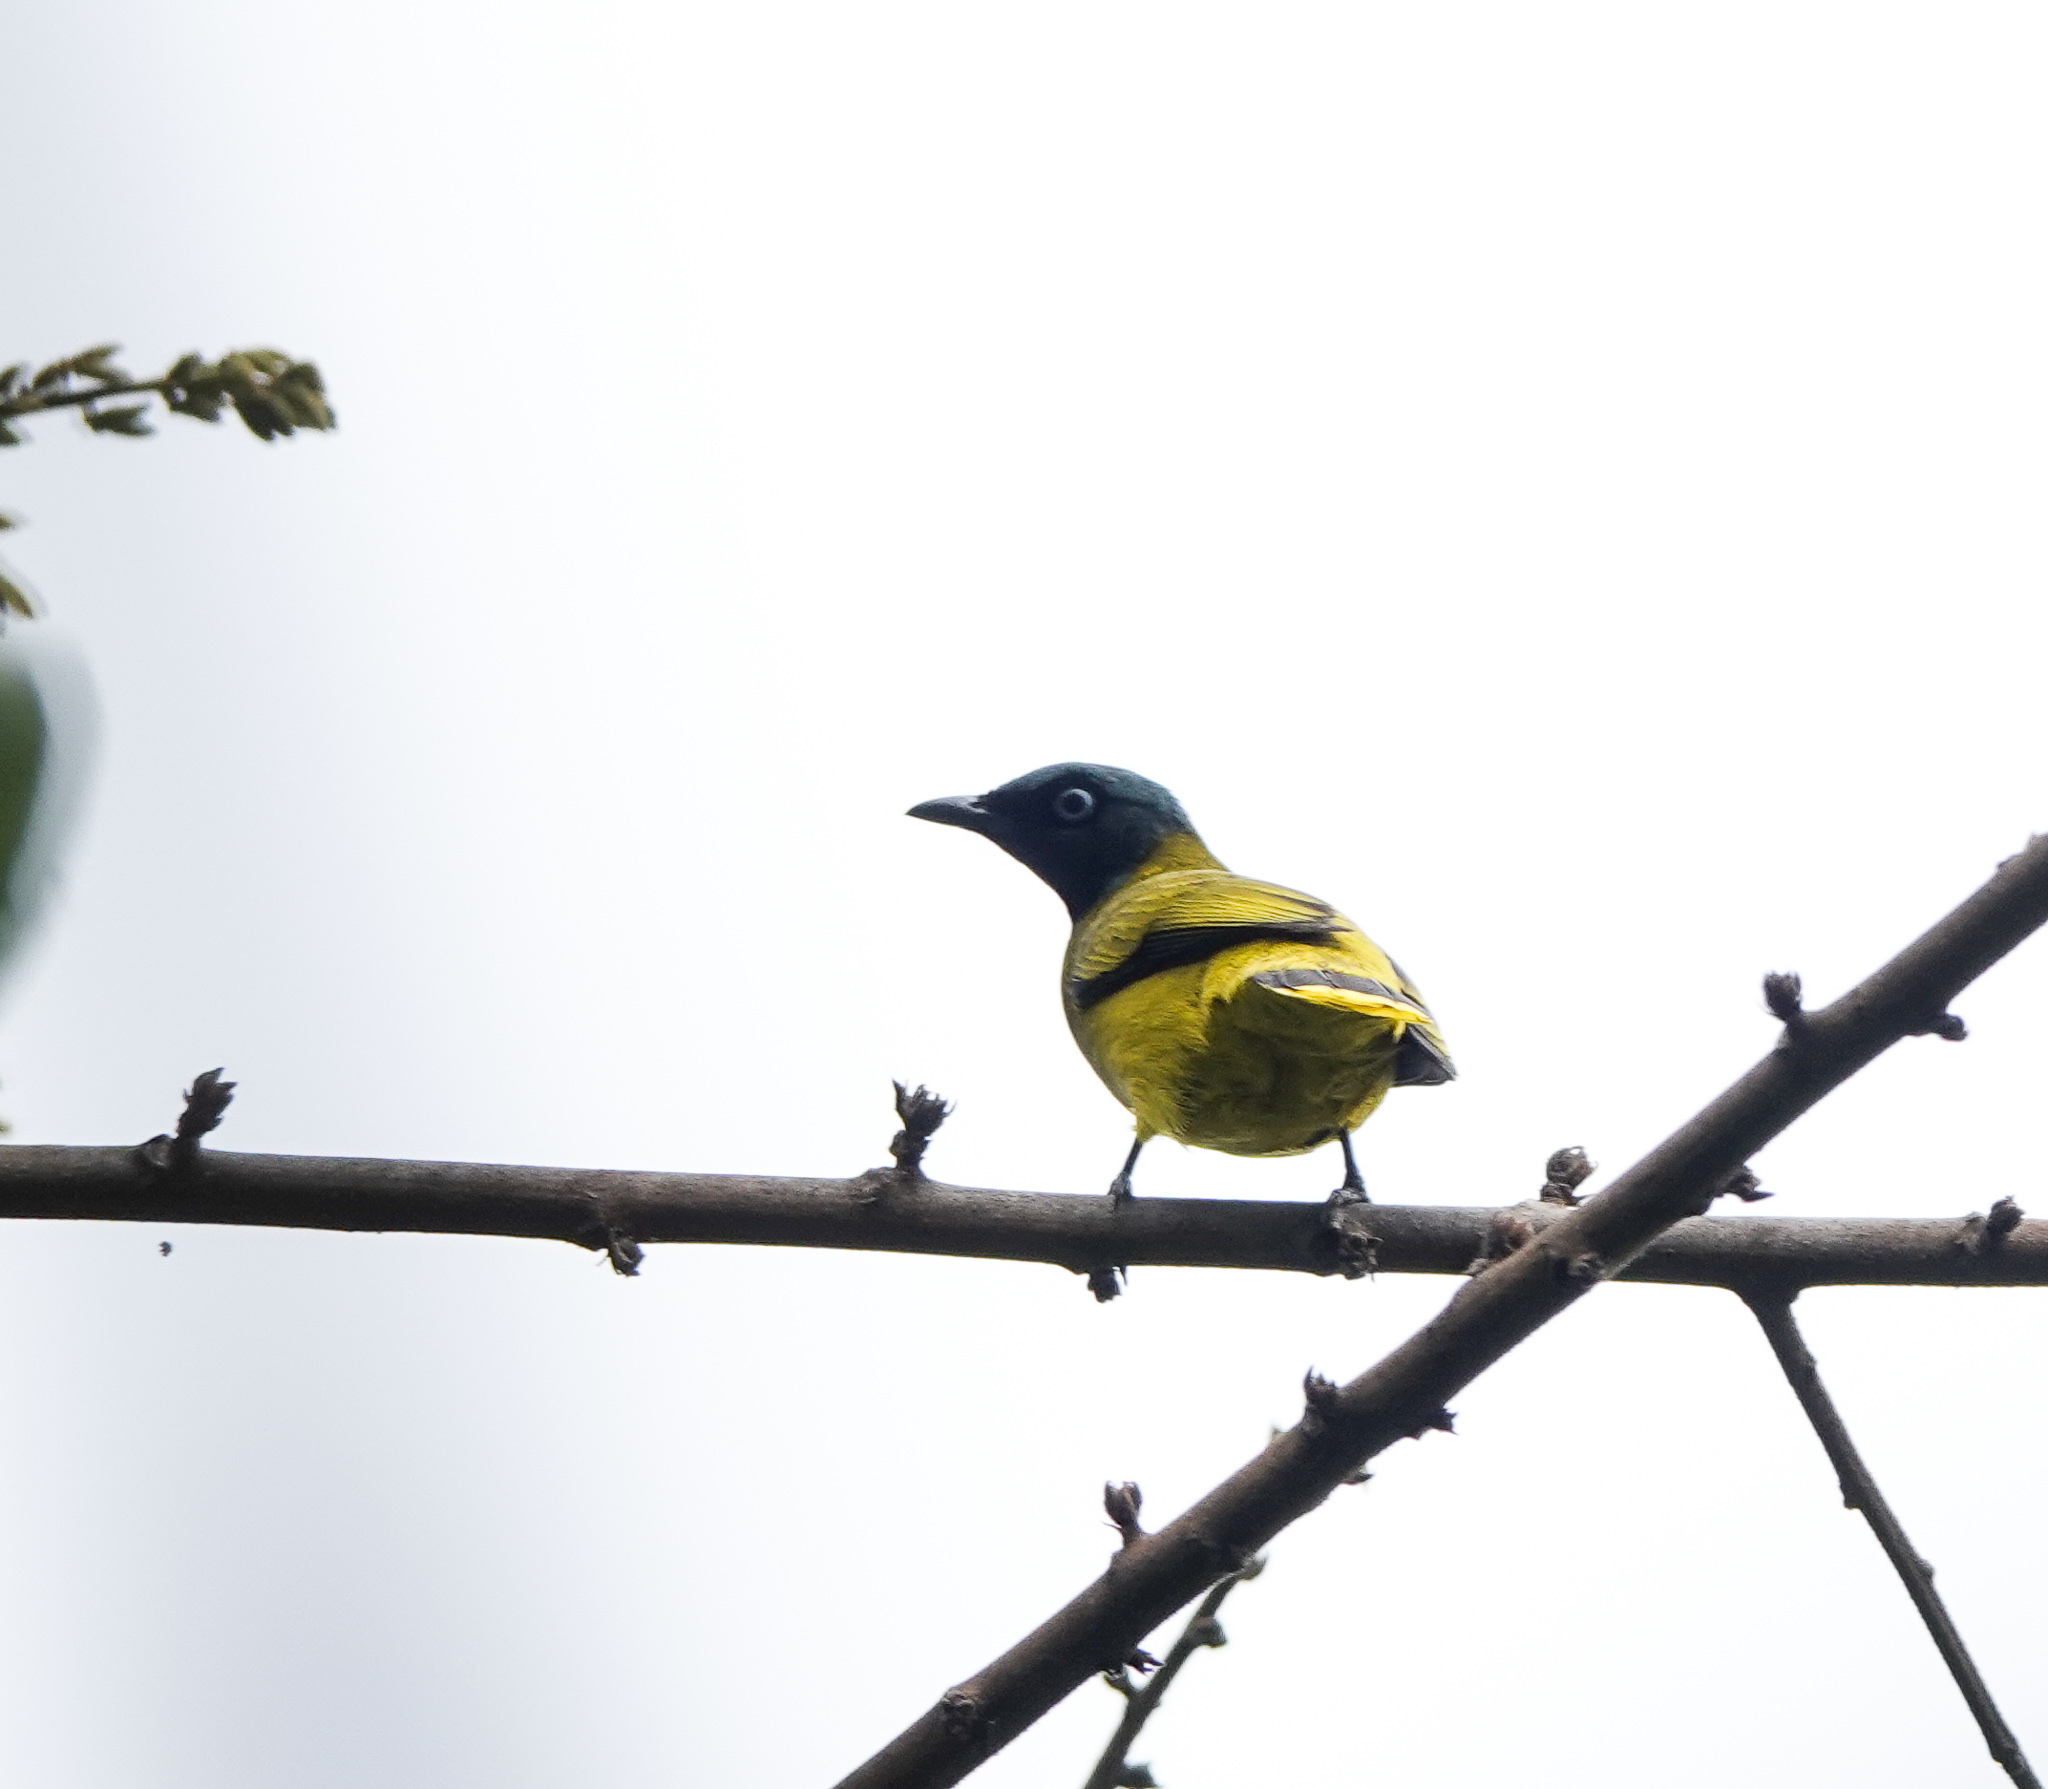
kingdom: Animalia
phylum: Chordata
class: Aves
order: Passeriformes
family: Pycnonotidae
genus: Microtarsus
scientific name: Microtarsus
